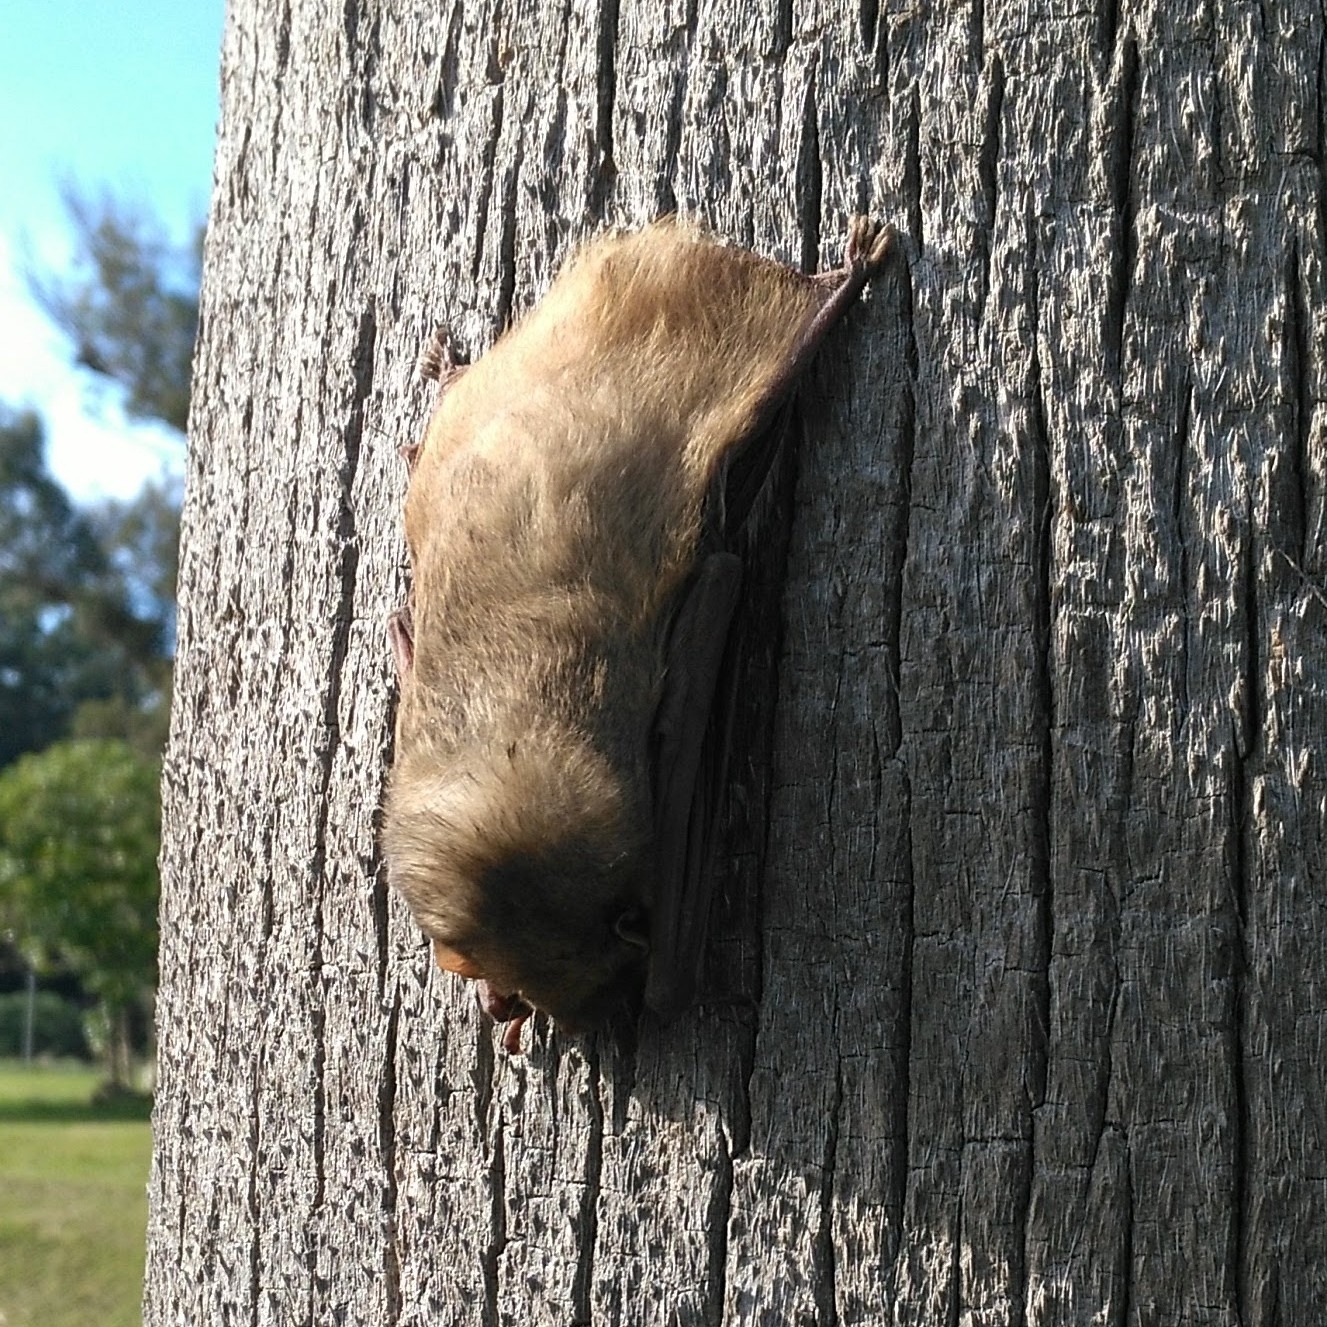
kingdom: Animalia
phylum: Chordata
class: Mammalia
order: Chiroptera
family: Vespertilionidae
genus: Dasypterus
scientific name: Dasypterus ega
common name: Southern yellow bat
